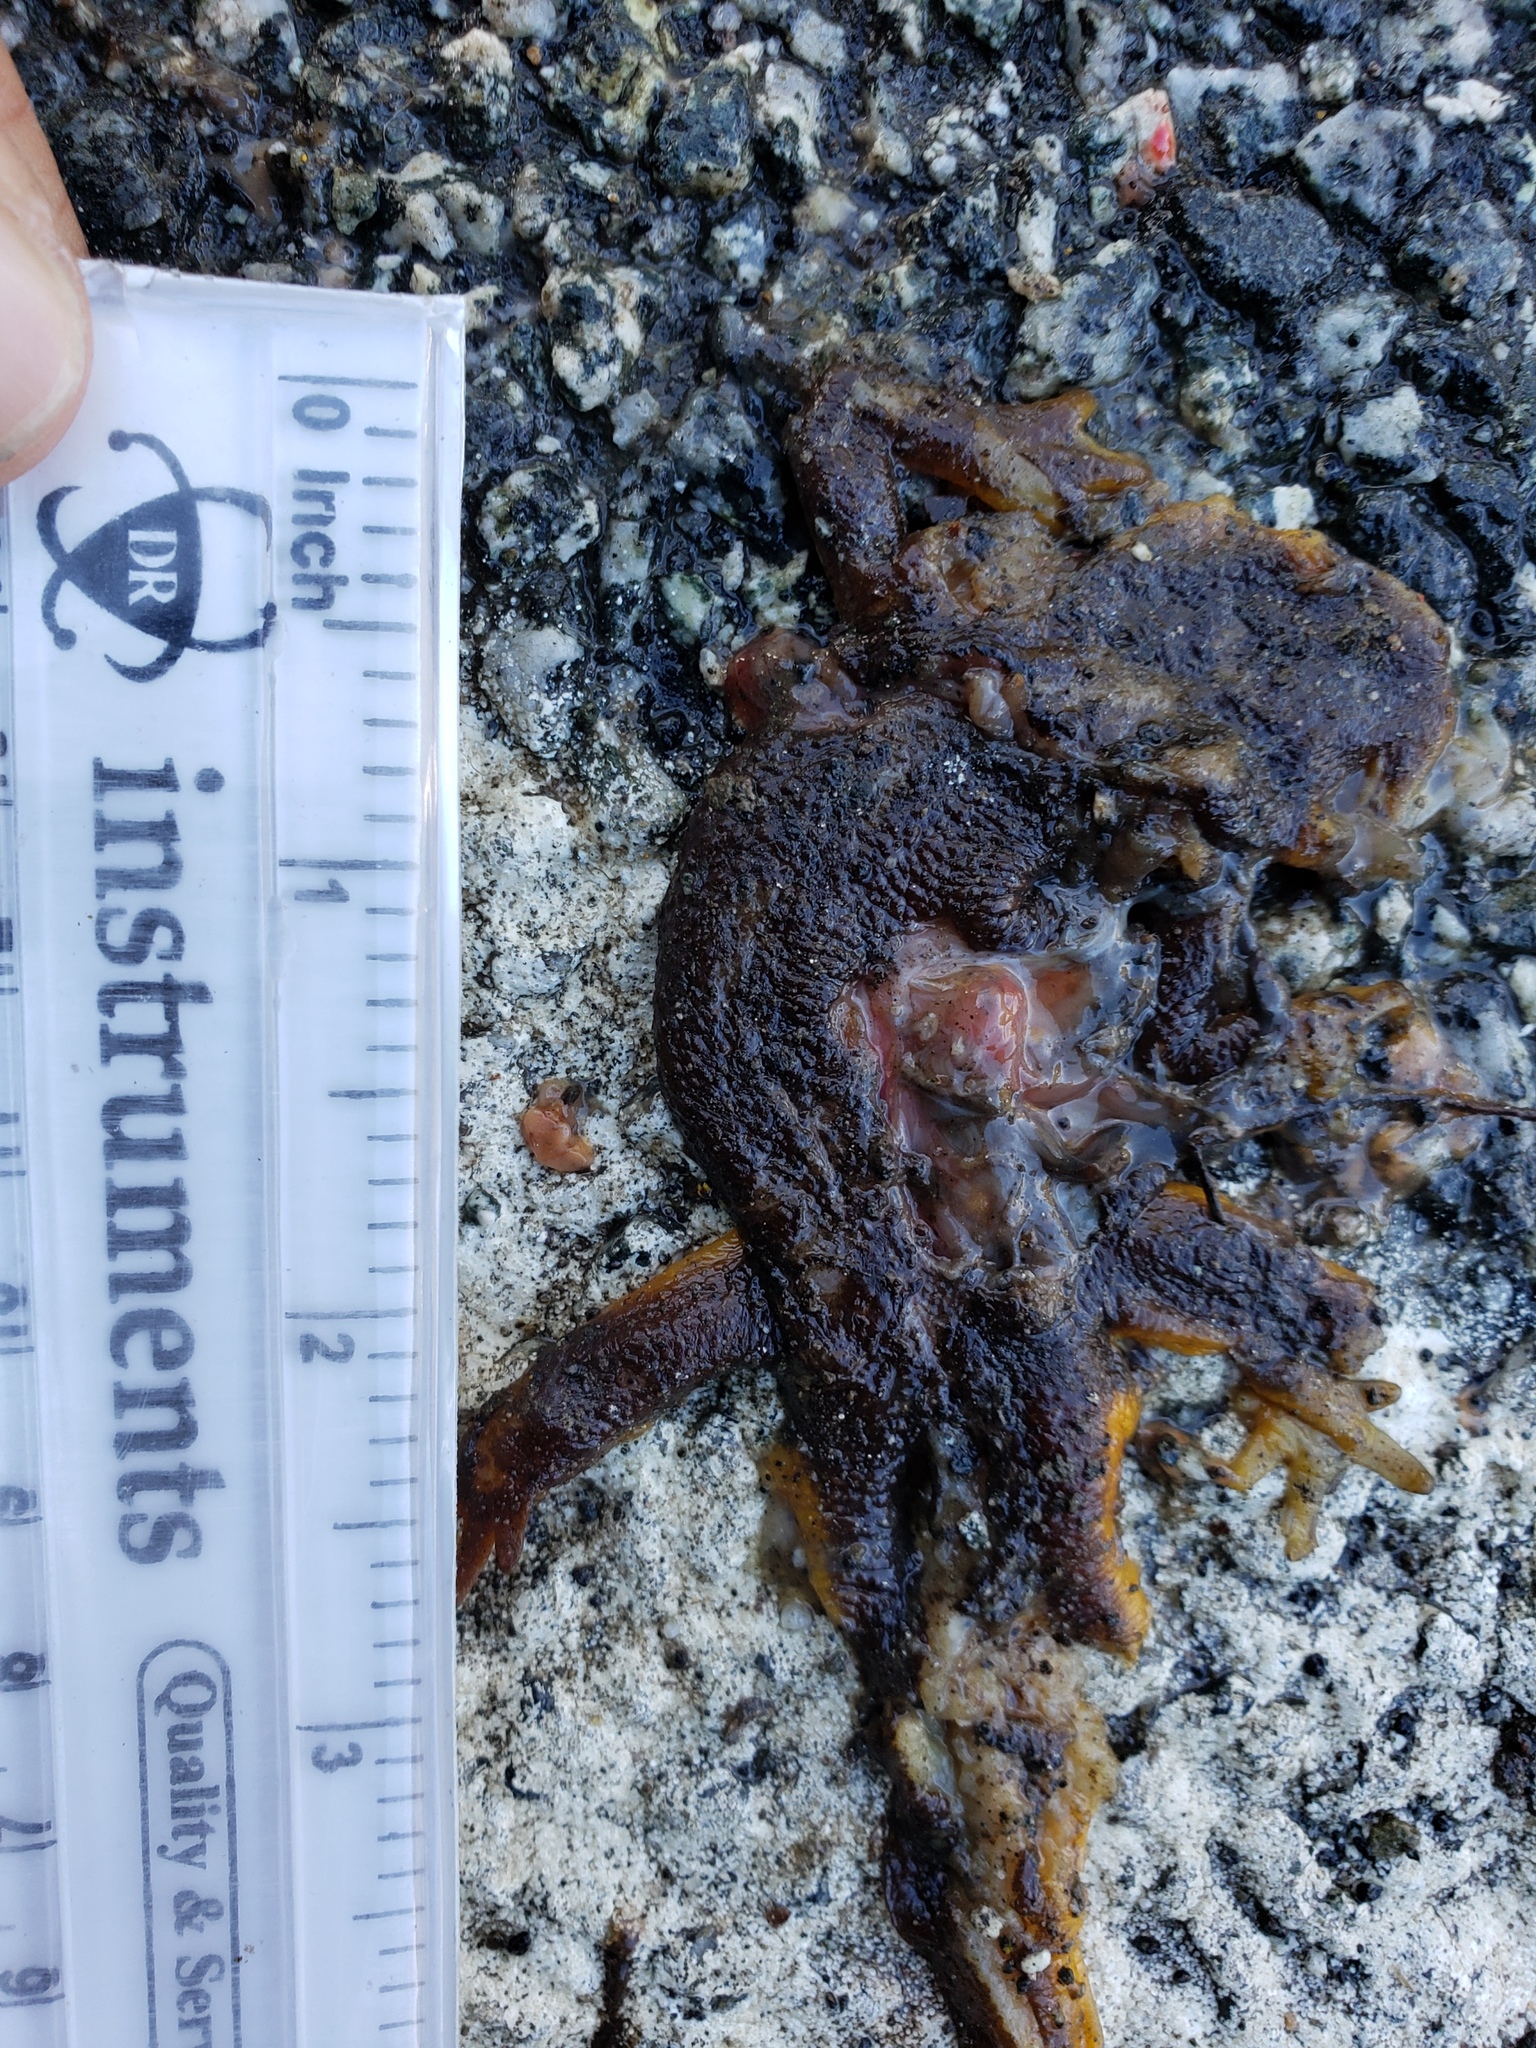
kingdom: Animalia
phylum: Chordata
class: Amphibia
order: Caudata
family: Salamandridae
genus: Taricha
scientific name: Taricha
